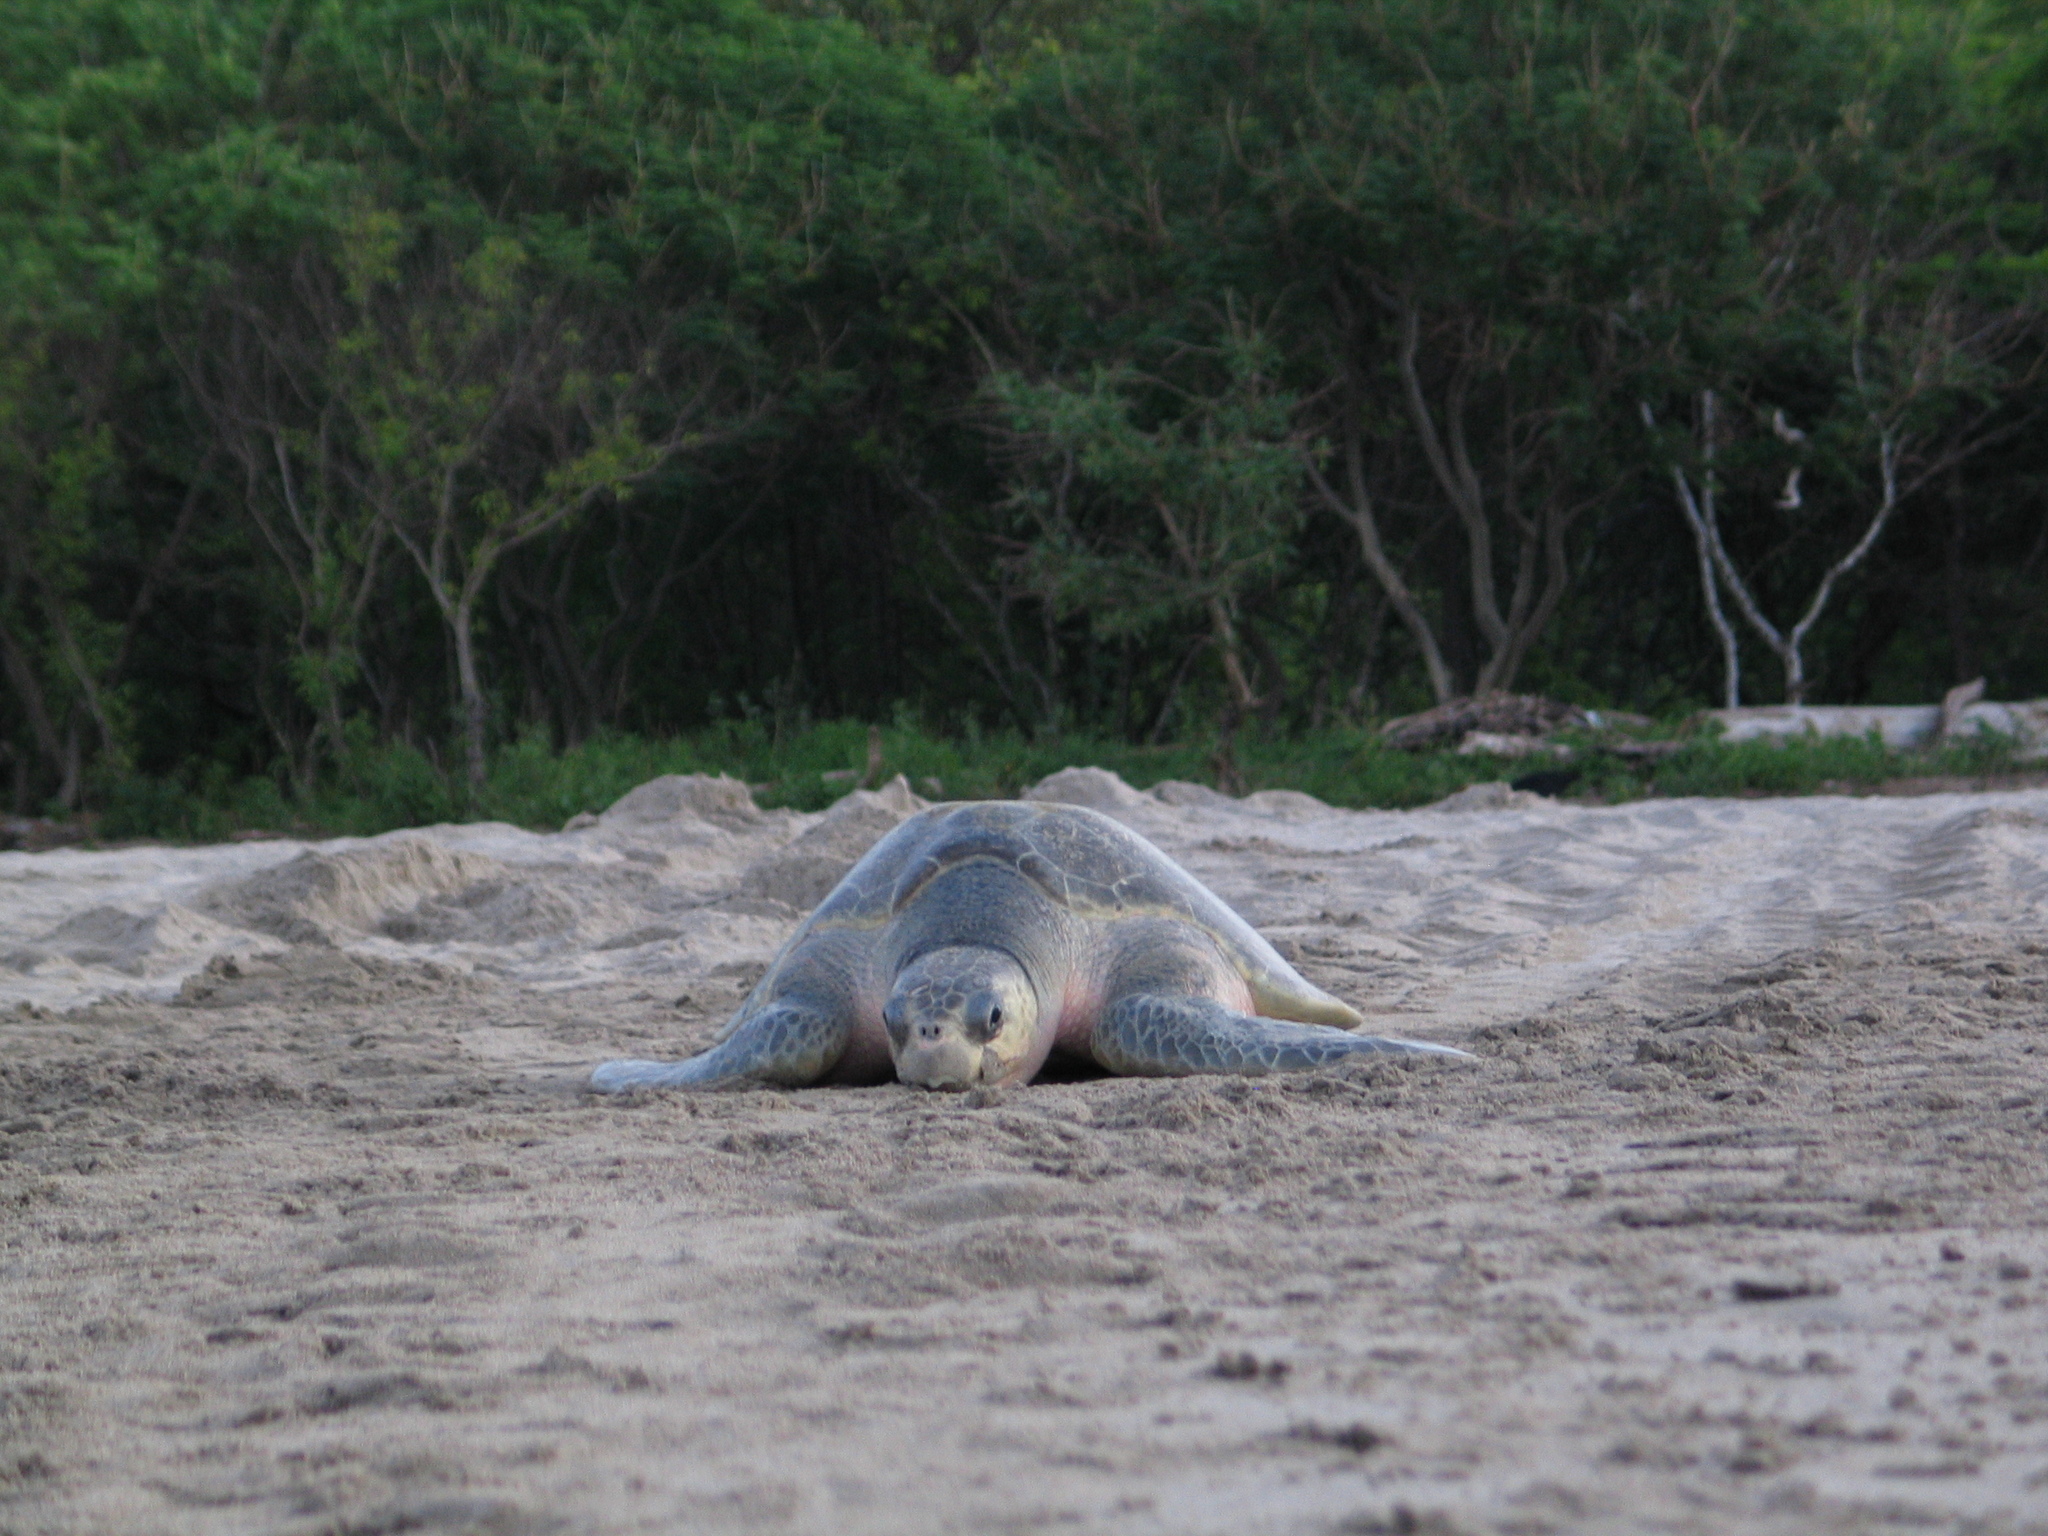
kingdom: Animalia
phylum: Chordata
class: Testudines
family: Cheloniidae
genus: Lepidochelys
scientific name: Lepidochelys olivacea
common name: Olive ridley
